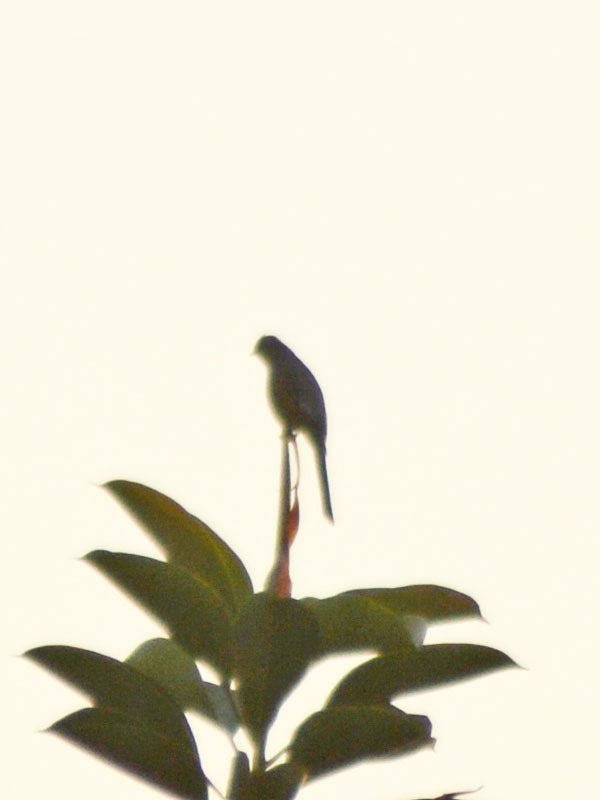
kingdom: Animalia
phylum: Chordata
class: Aves
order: Passeriformes
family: Ptilogonatidae
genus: Ptilogonys
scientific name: Ptilogonys cinereus
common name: Gray silky-flycatcher
